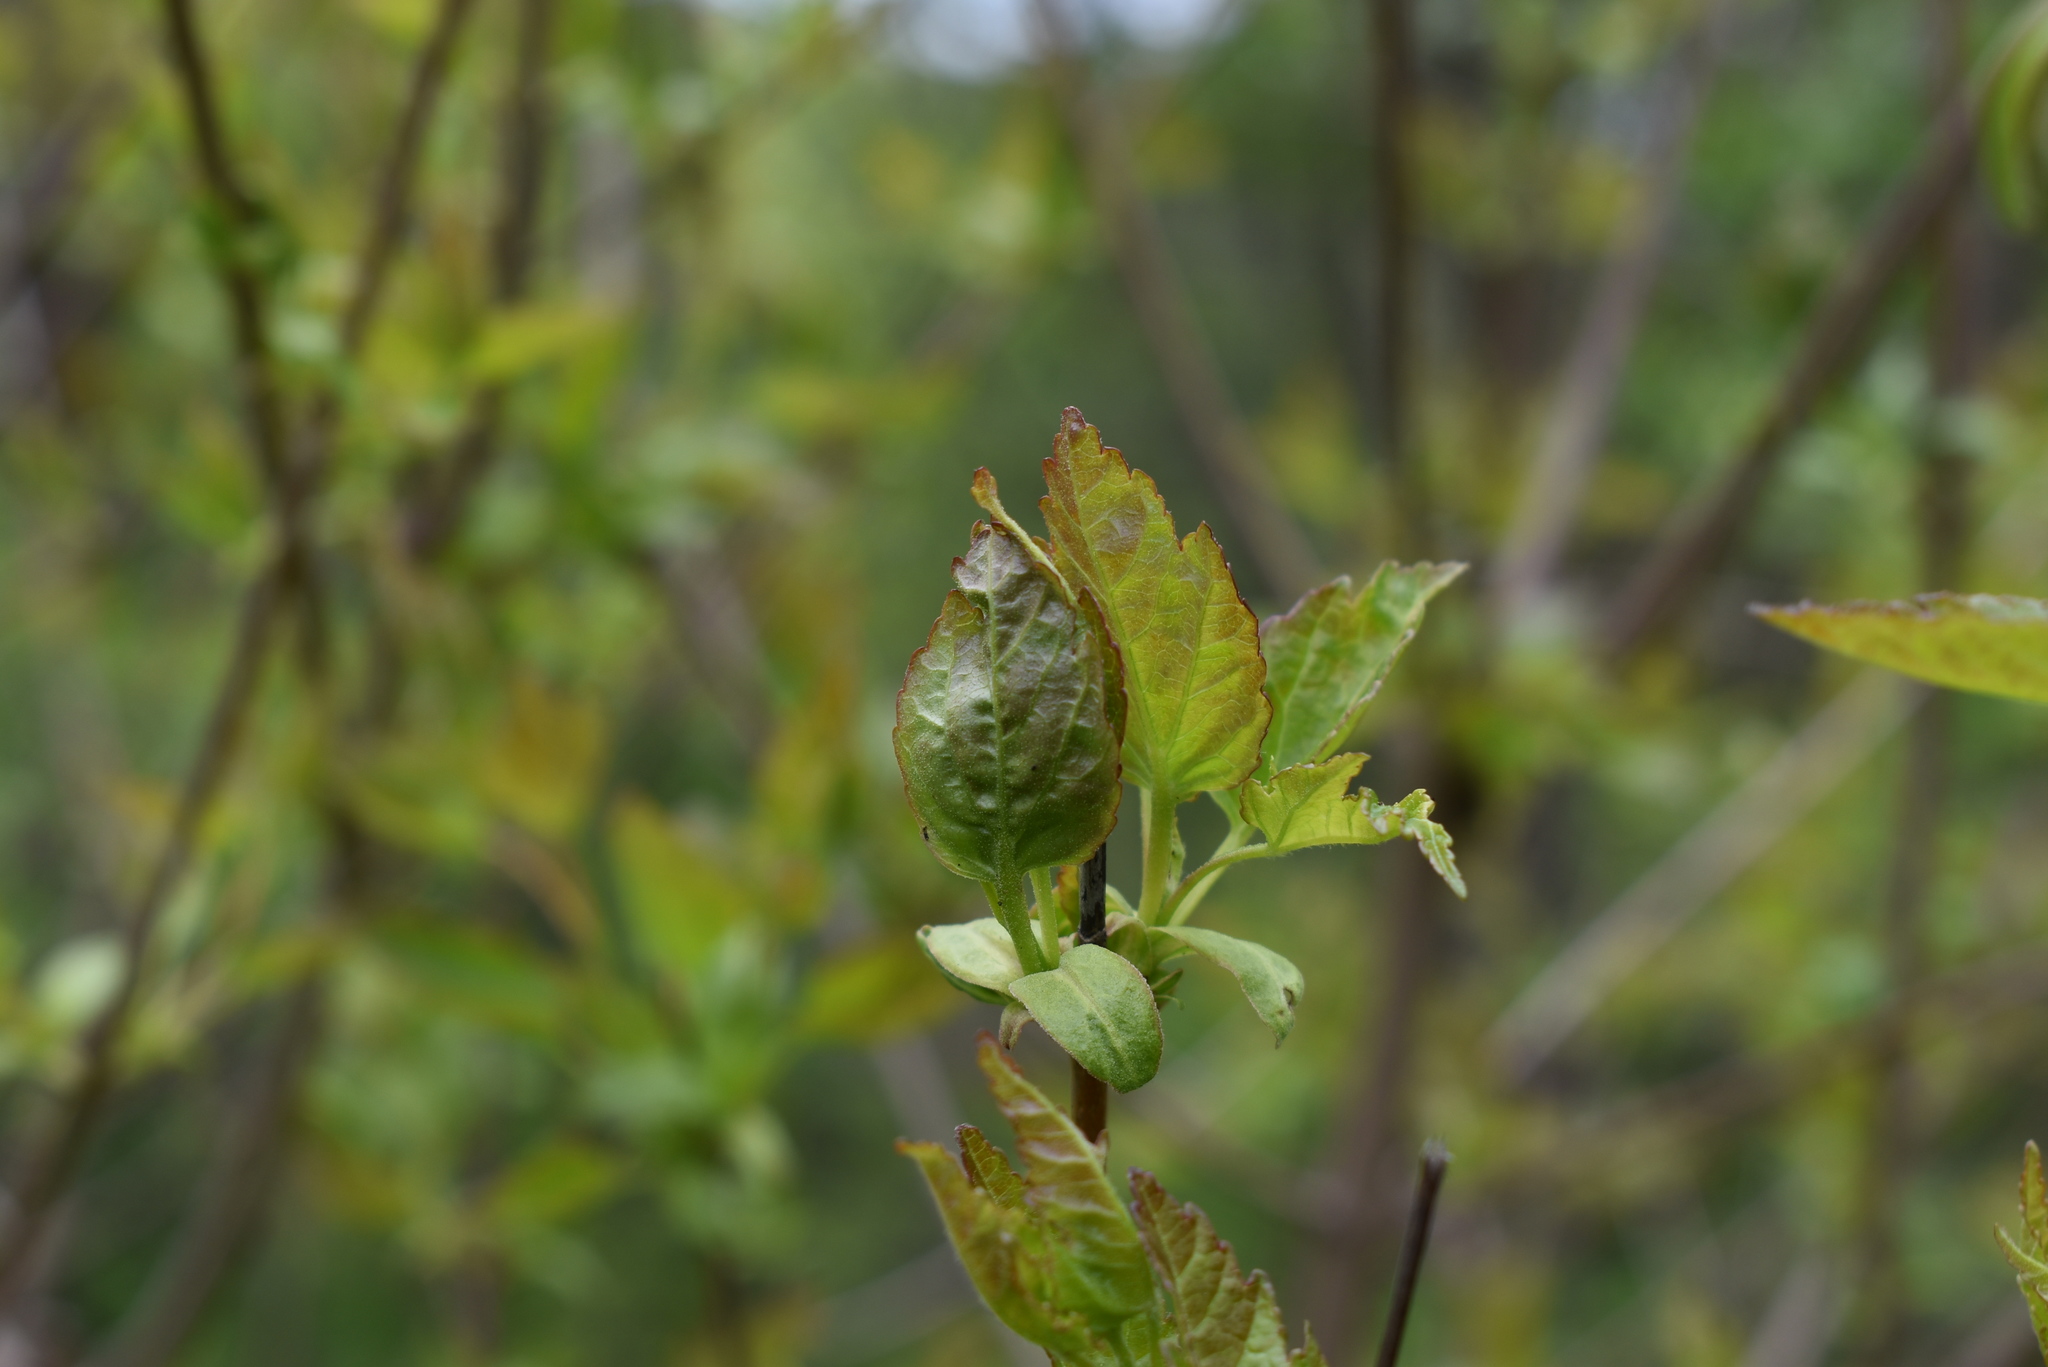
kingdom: Plantae
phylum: Tracheophyta
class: Magnoliopsida
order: Sapindales
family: Sapindaceae
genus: Acer
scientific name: Acer tataricum
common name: Tartar maple
